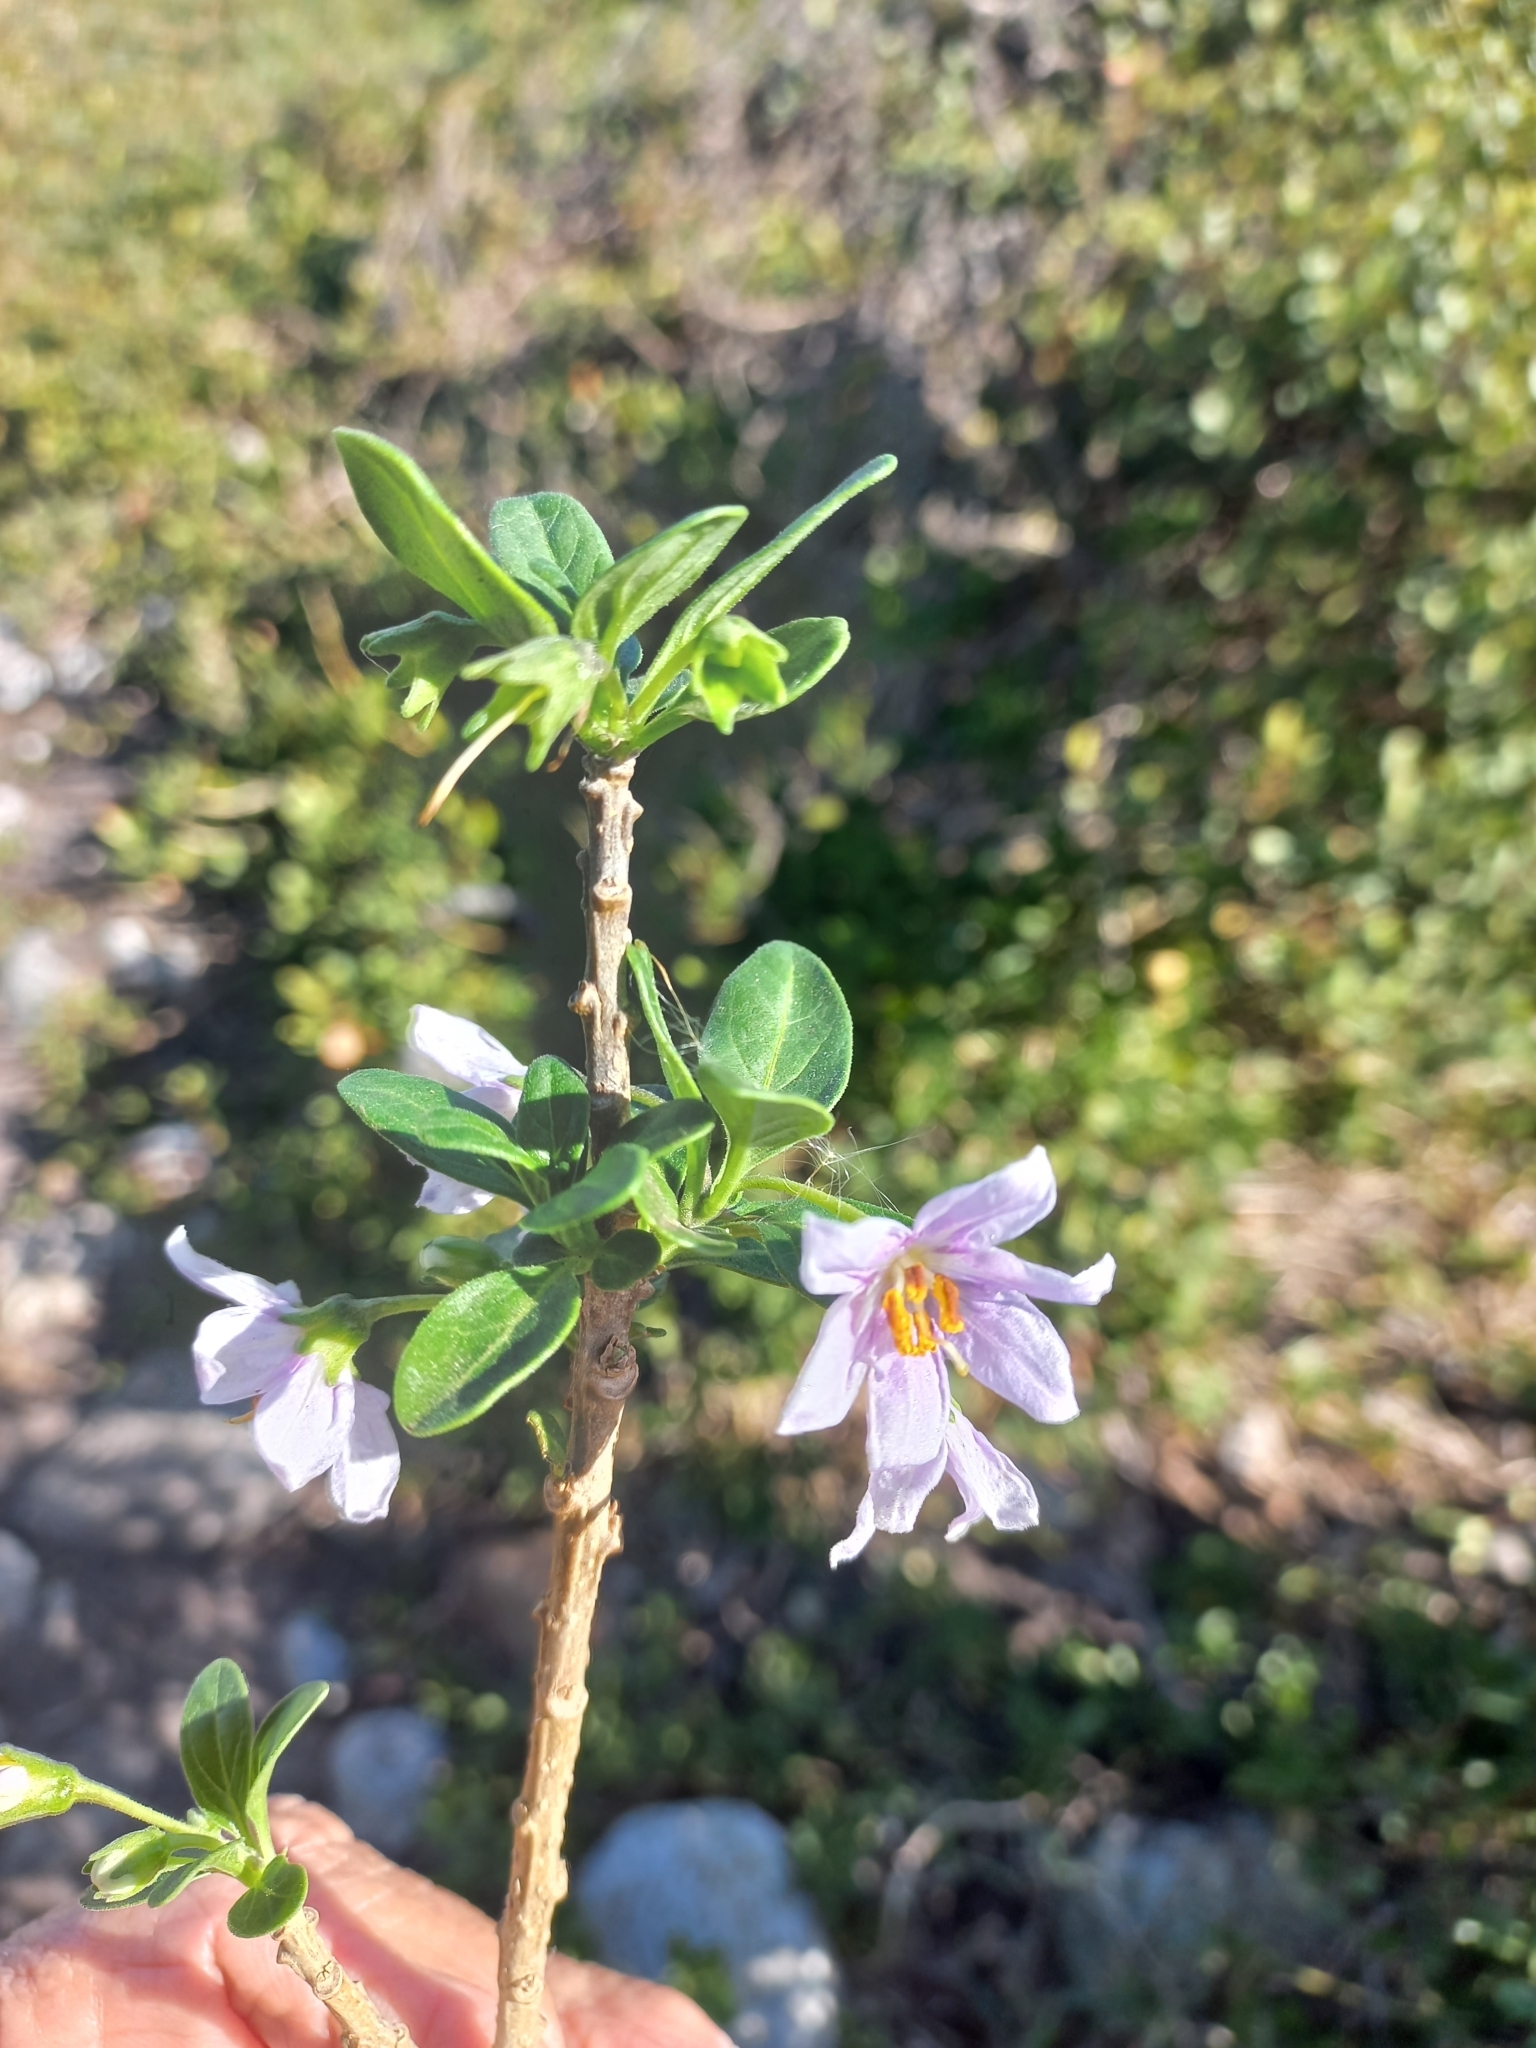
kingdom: Plantae
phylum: Tracheophyta
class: Magnoliopsida
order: Solanales
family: Solanaceae
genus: Solanum
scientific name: Solanum guineense
